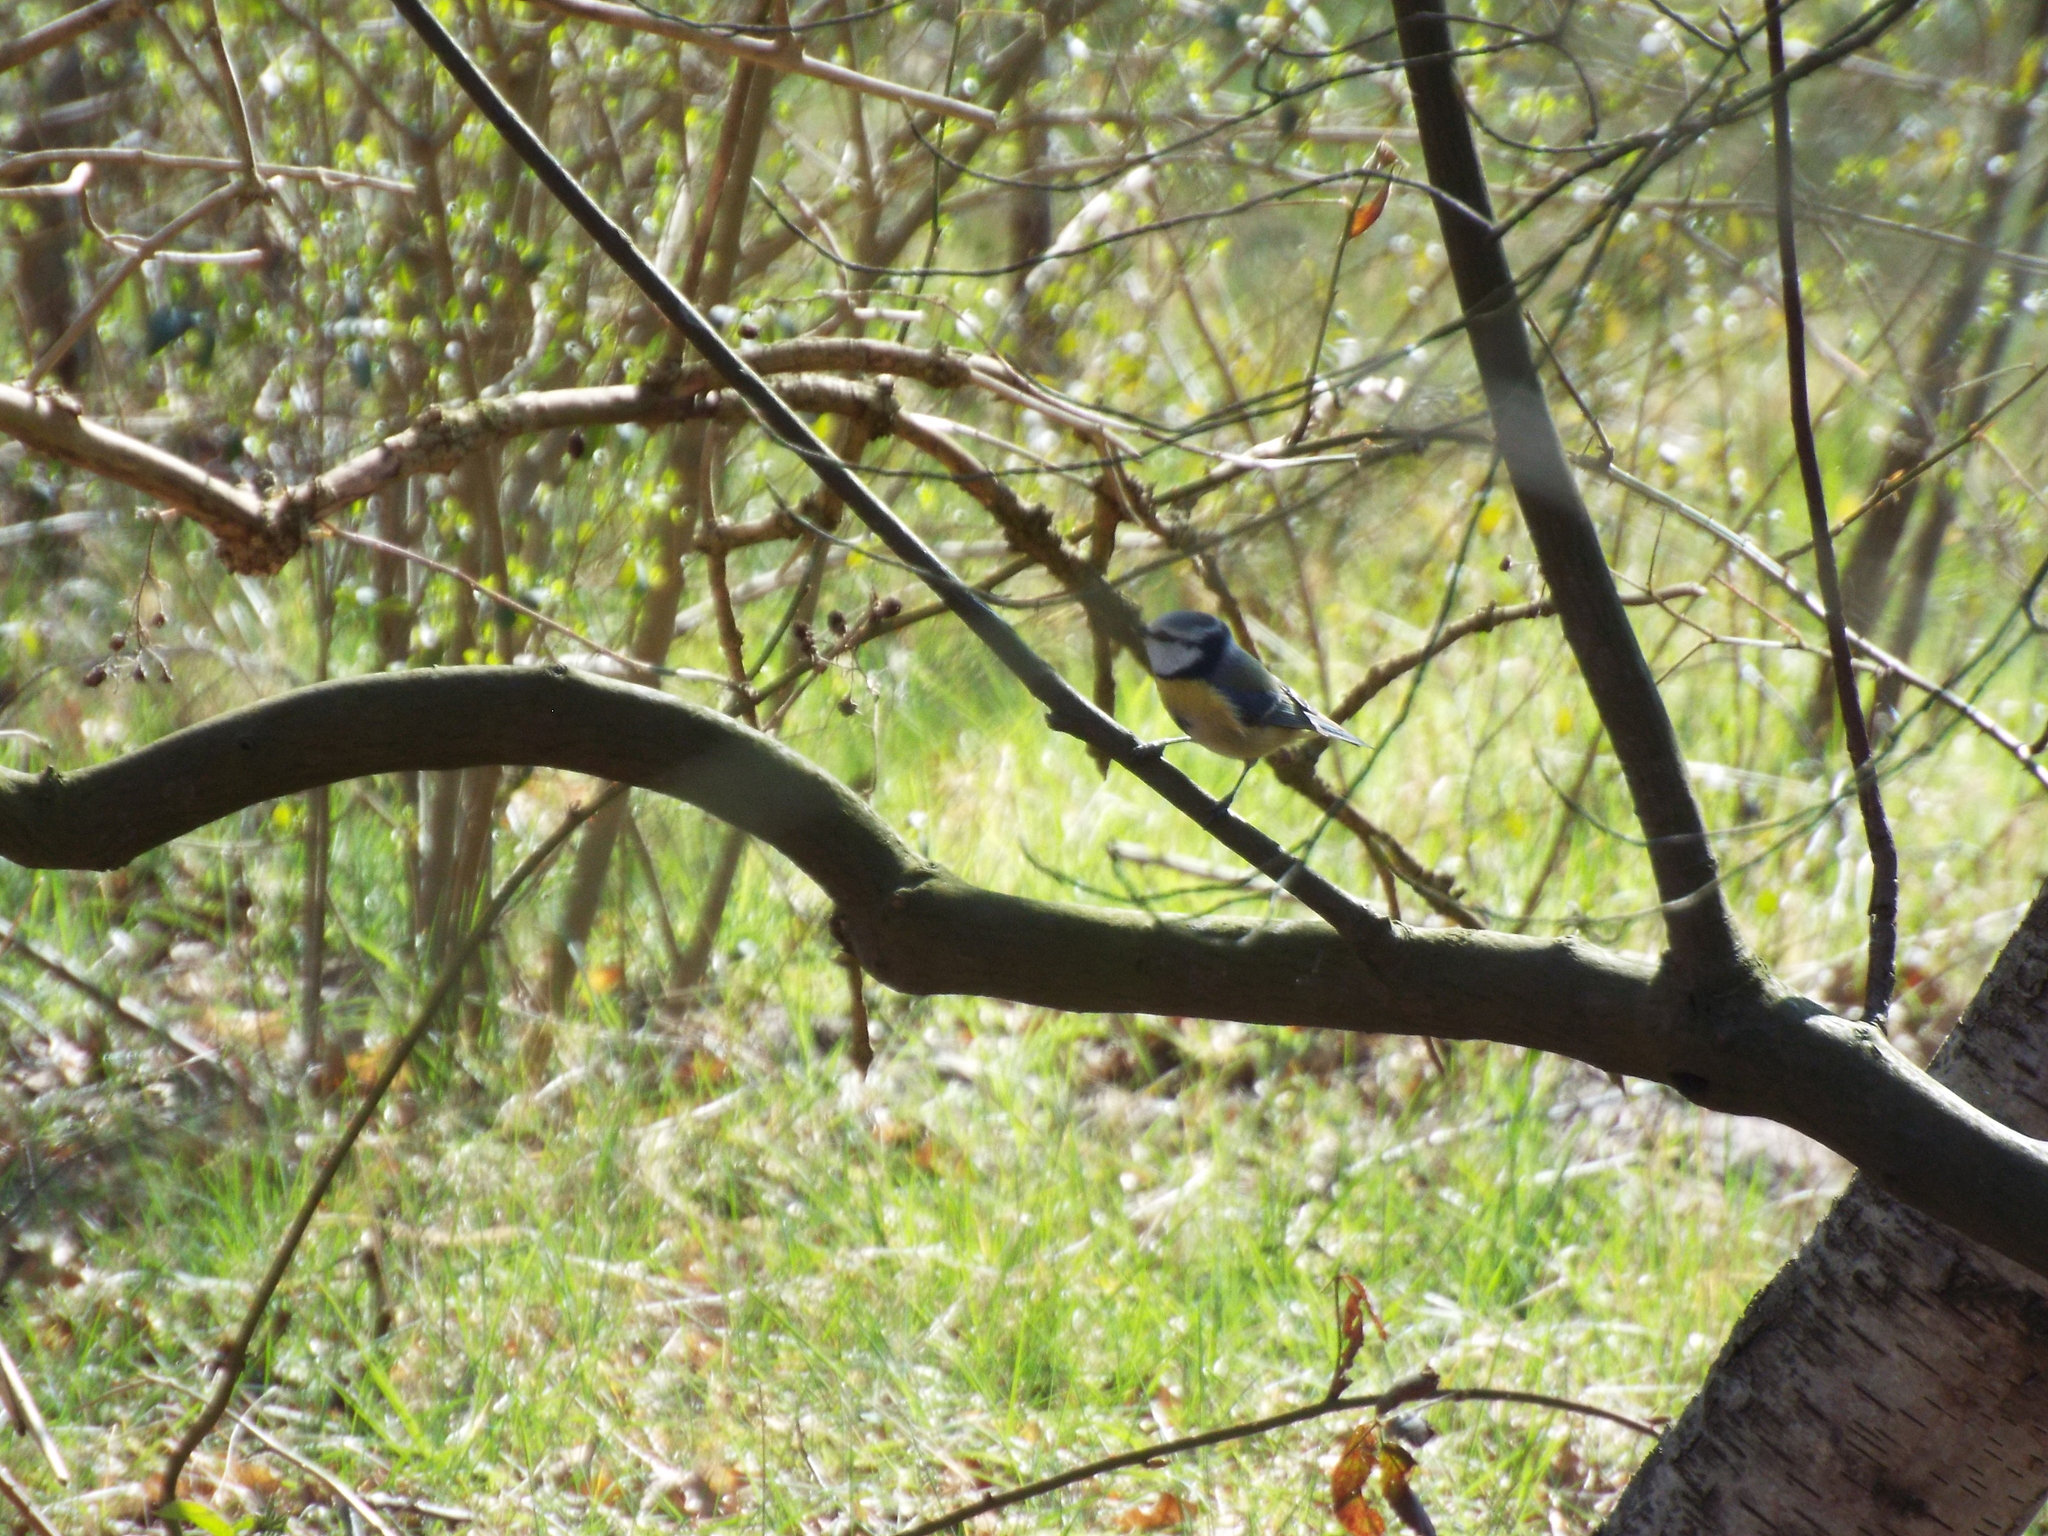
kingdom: Animalia
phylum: Chordata
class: Aves
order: Passeriformes
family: Paridae
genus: Cyanistes
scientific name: Cyanistes caeruleus
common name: Eurasian blue tit
